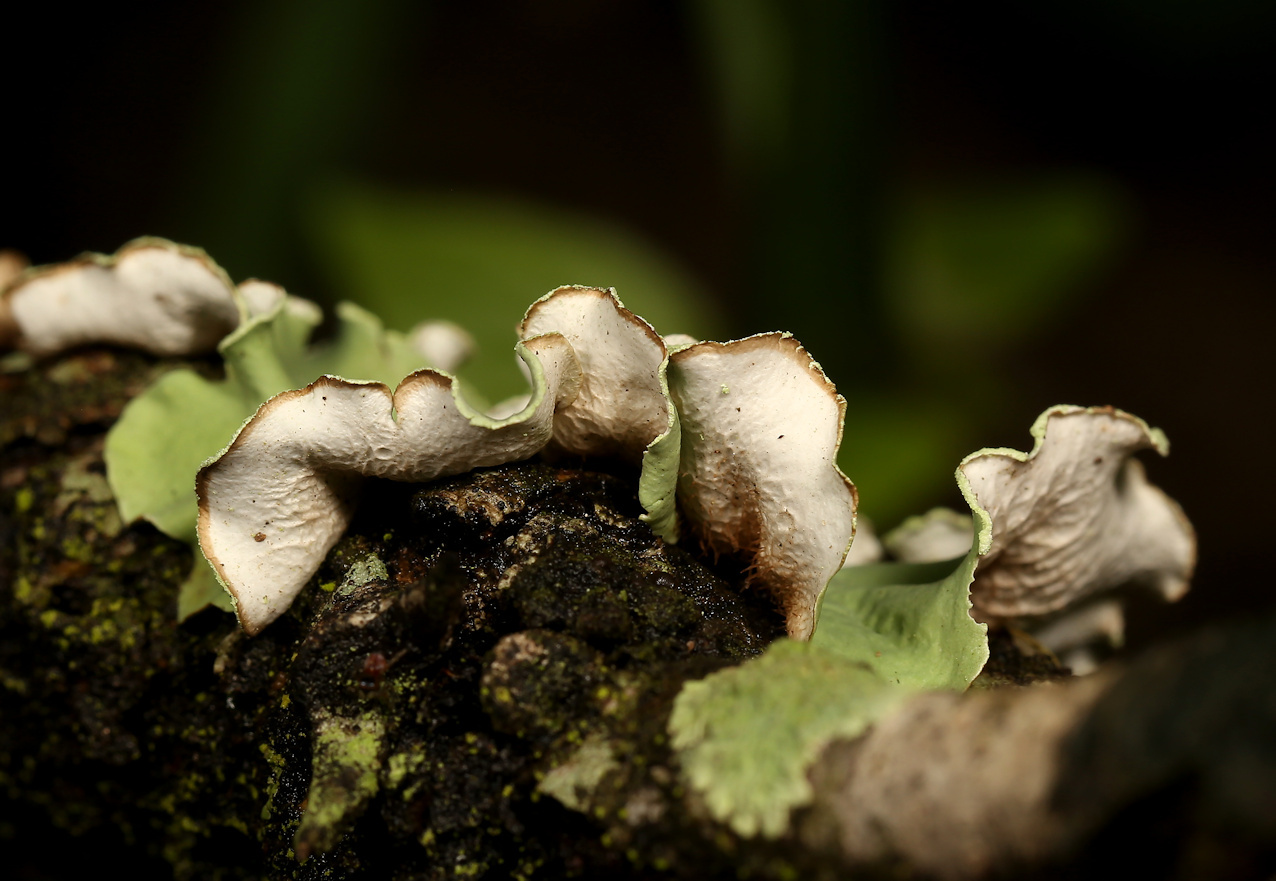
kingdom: Fungi
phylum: Ascomycota
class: Lecanoromycetes
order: Lecanorales
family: Parmeliaceae
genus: Parmotrema
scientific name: Parmotrema austrosinense
